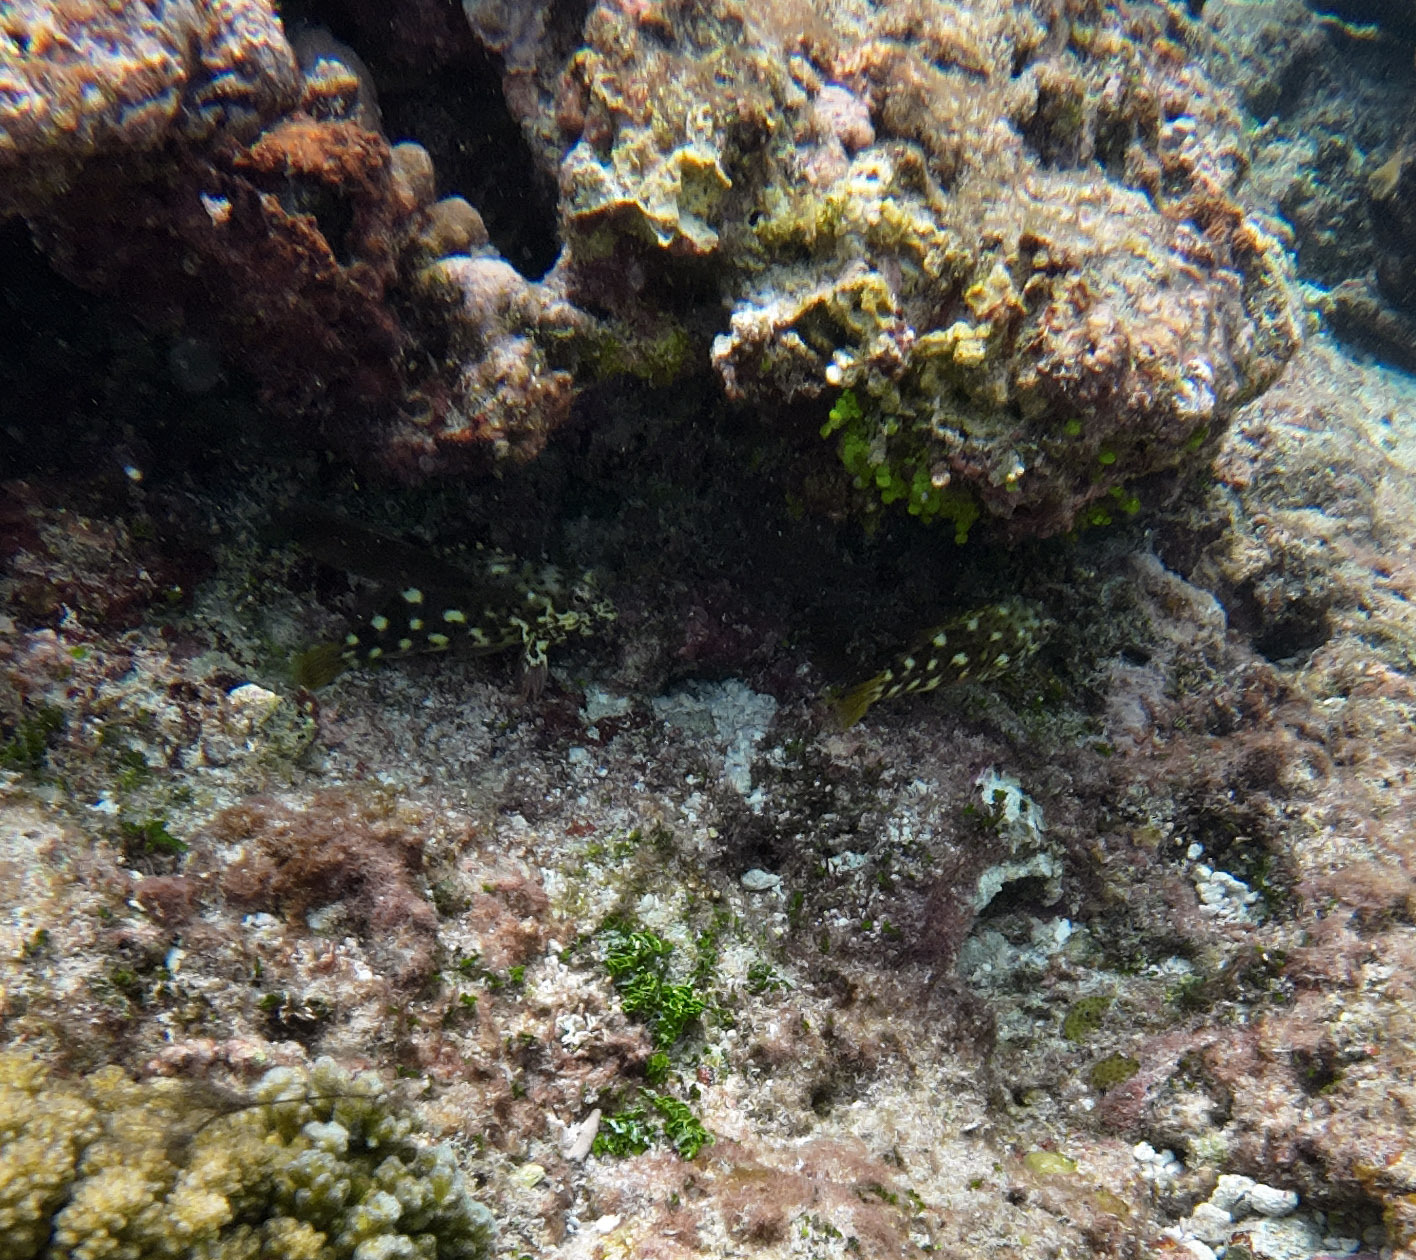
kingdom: Animalia
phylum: Chordata
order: Perciformes
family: Cirrhitidae
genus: Cirrhitus
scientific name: Cirrhitus pinnulatus
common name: Stocky hawkfish
